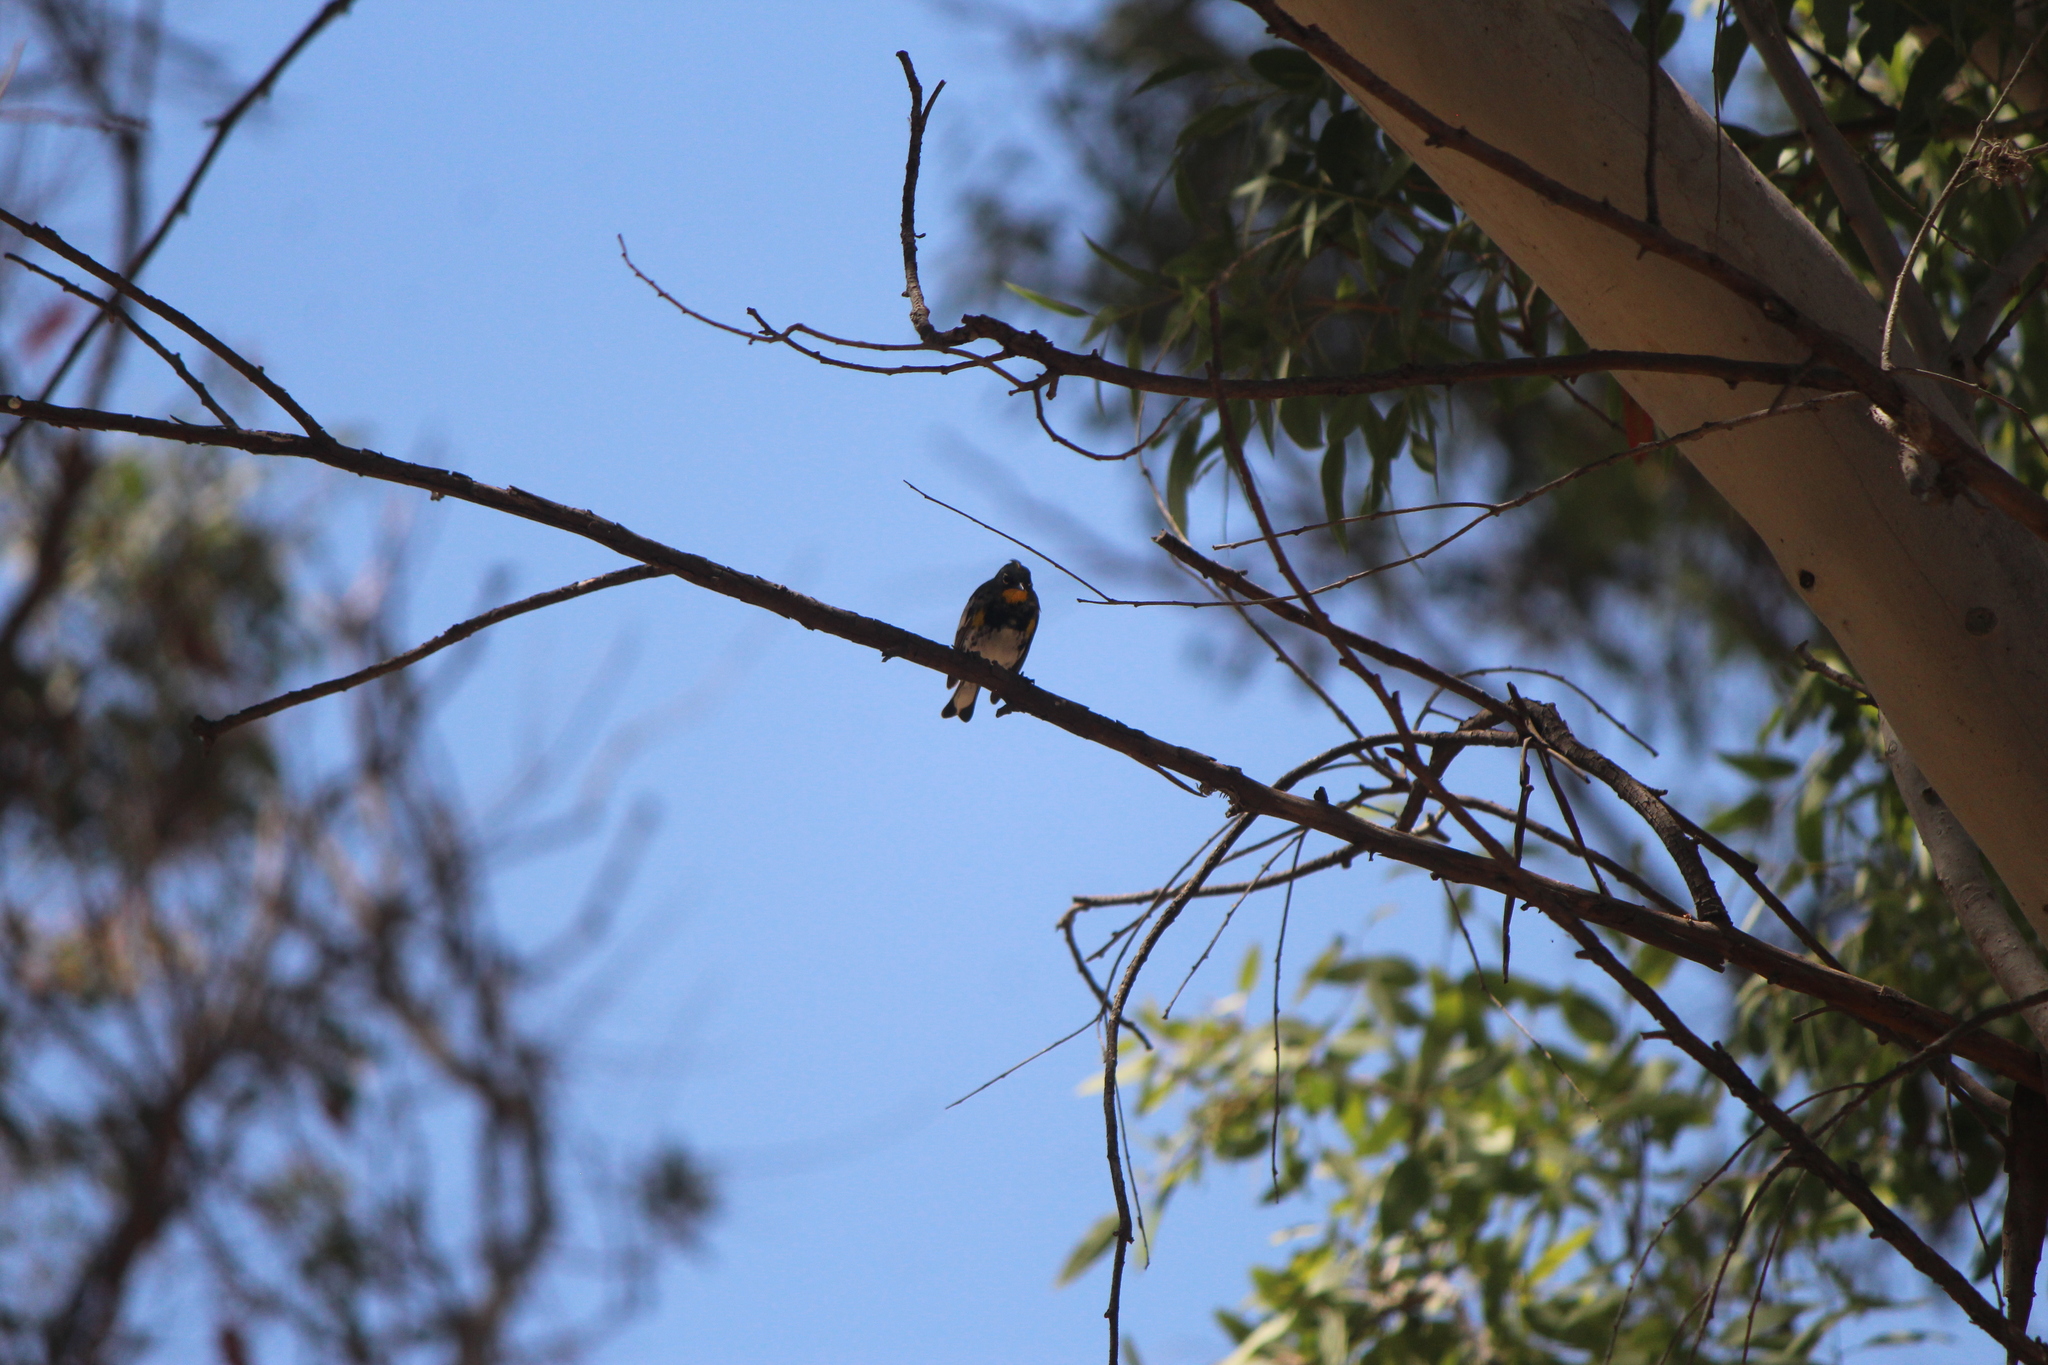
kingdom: Animalia
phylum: Chordata
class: Aves
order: Passeriformes
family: Parulidae
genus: Setophaga
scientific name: Setophaga auduboni
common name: Audubon's warbler
